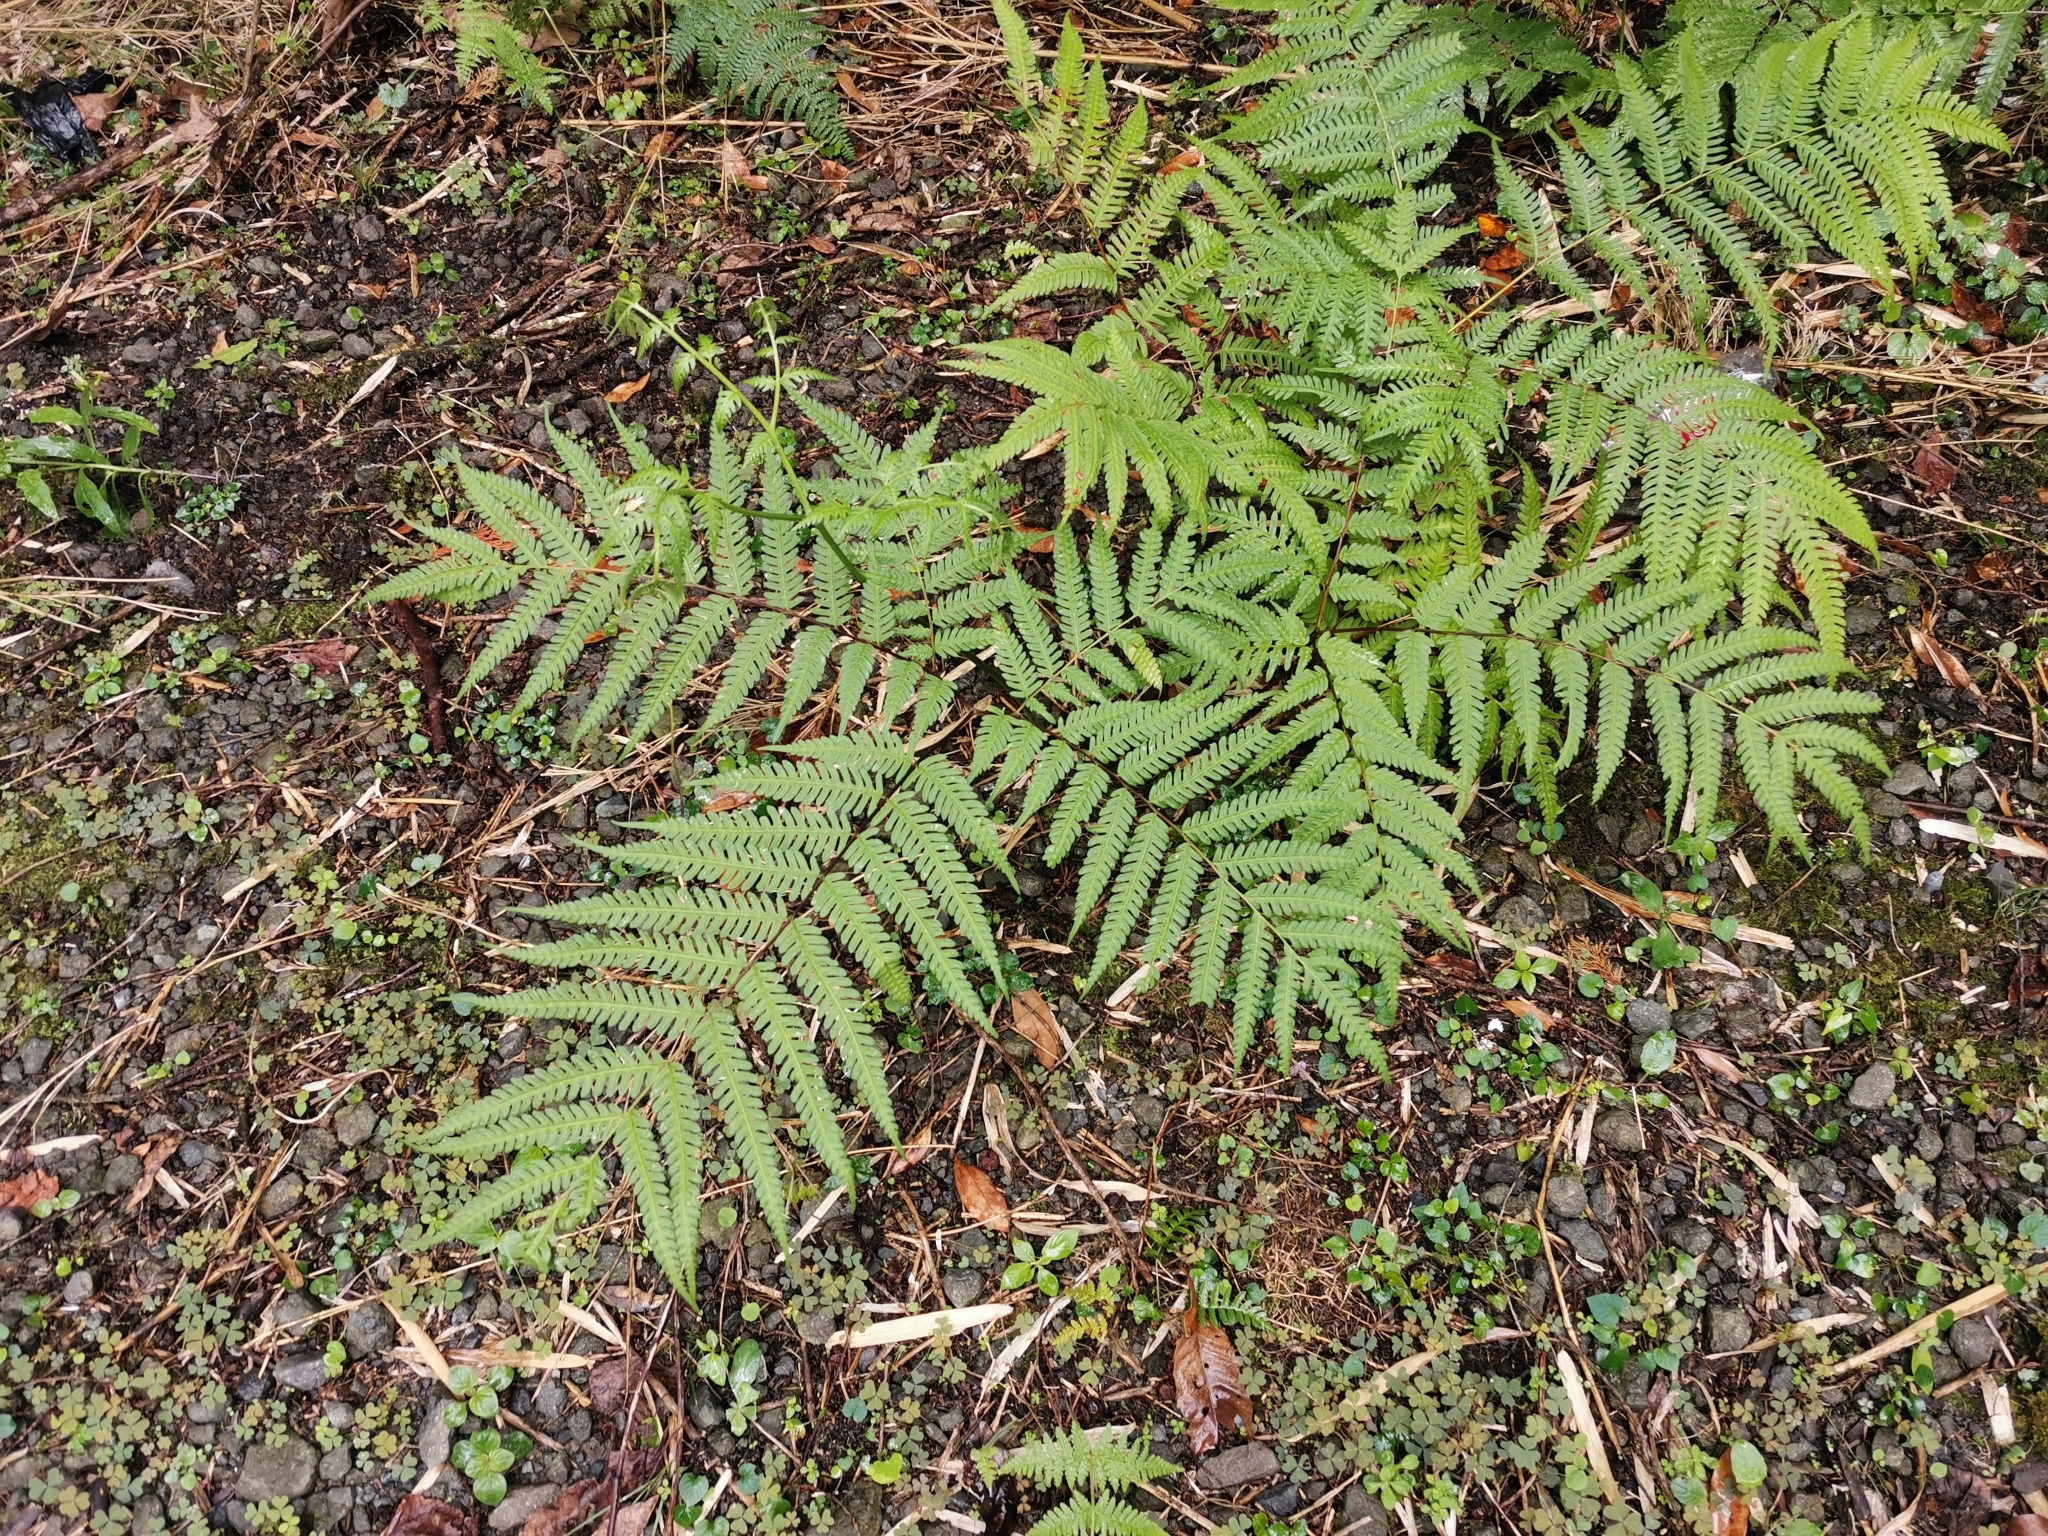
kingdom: Plantae
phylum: Tracheophyta
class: Polypodiopsida
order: Polypodiales
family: Pteridaceae
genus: Pteris
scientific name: Pteris wallichiana
